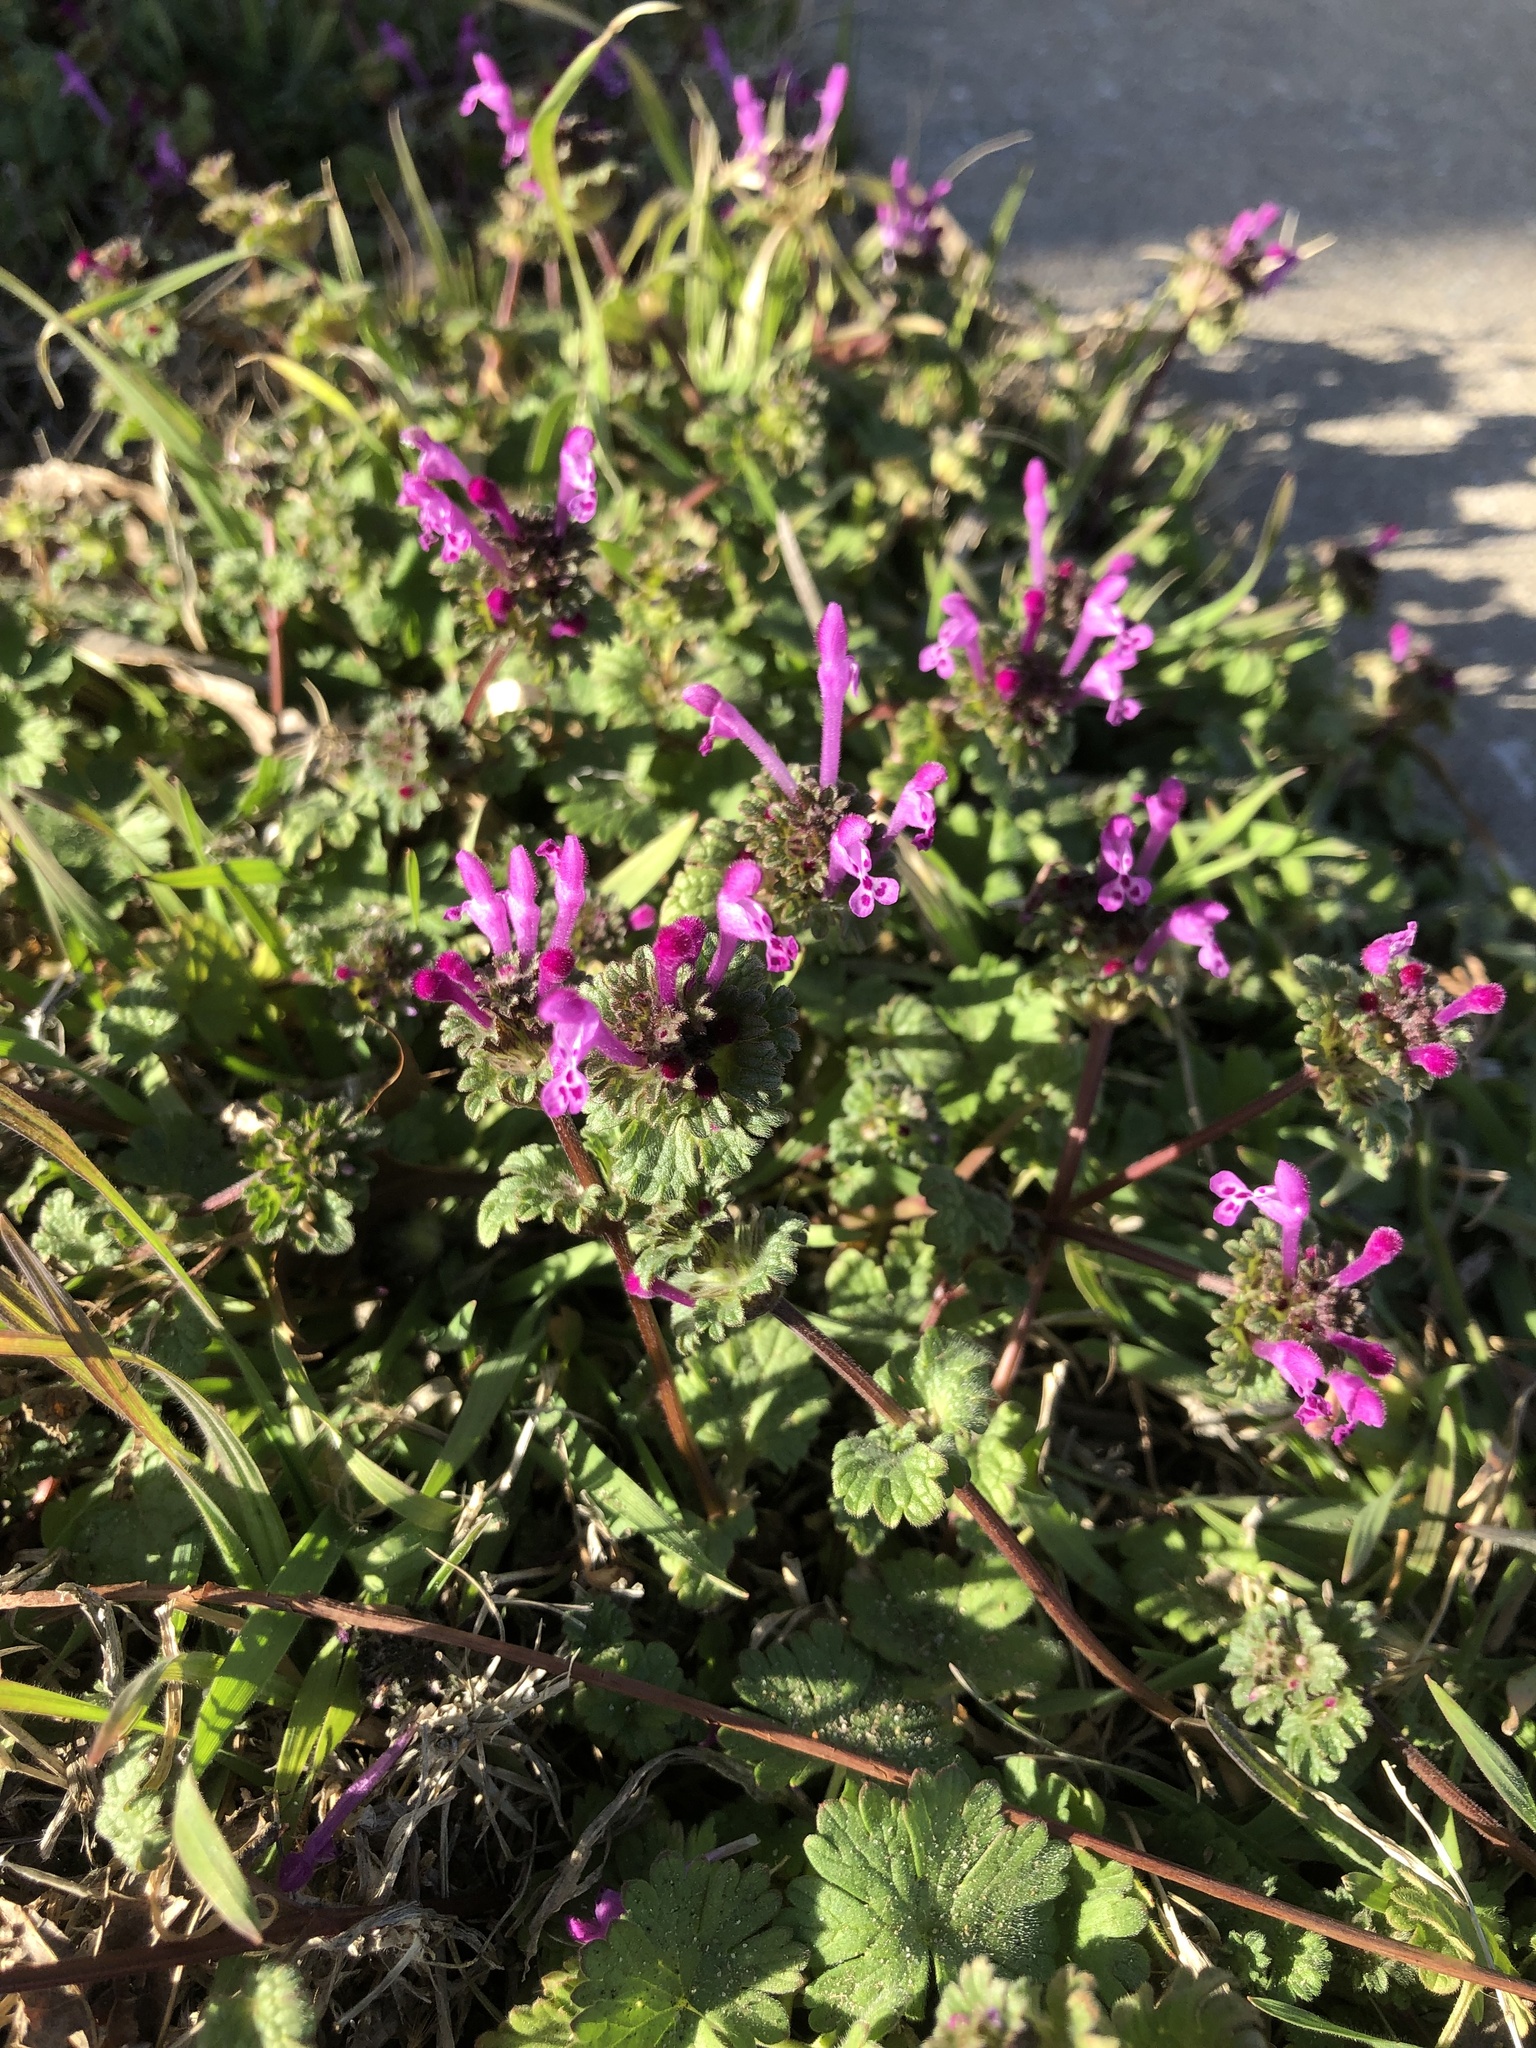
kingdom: Plantae
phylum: Tracheophyta
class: Magnoliopsida
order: Lamiales
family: Lamiaceae
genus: Lamium
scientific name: Lamium amplexicaule
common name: Henbit dead-nettle
